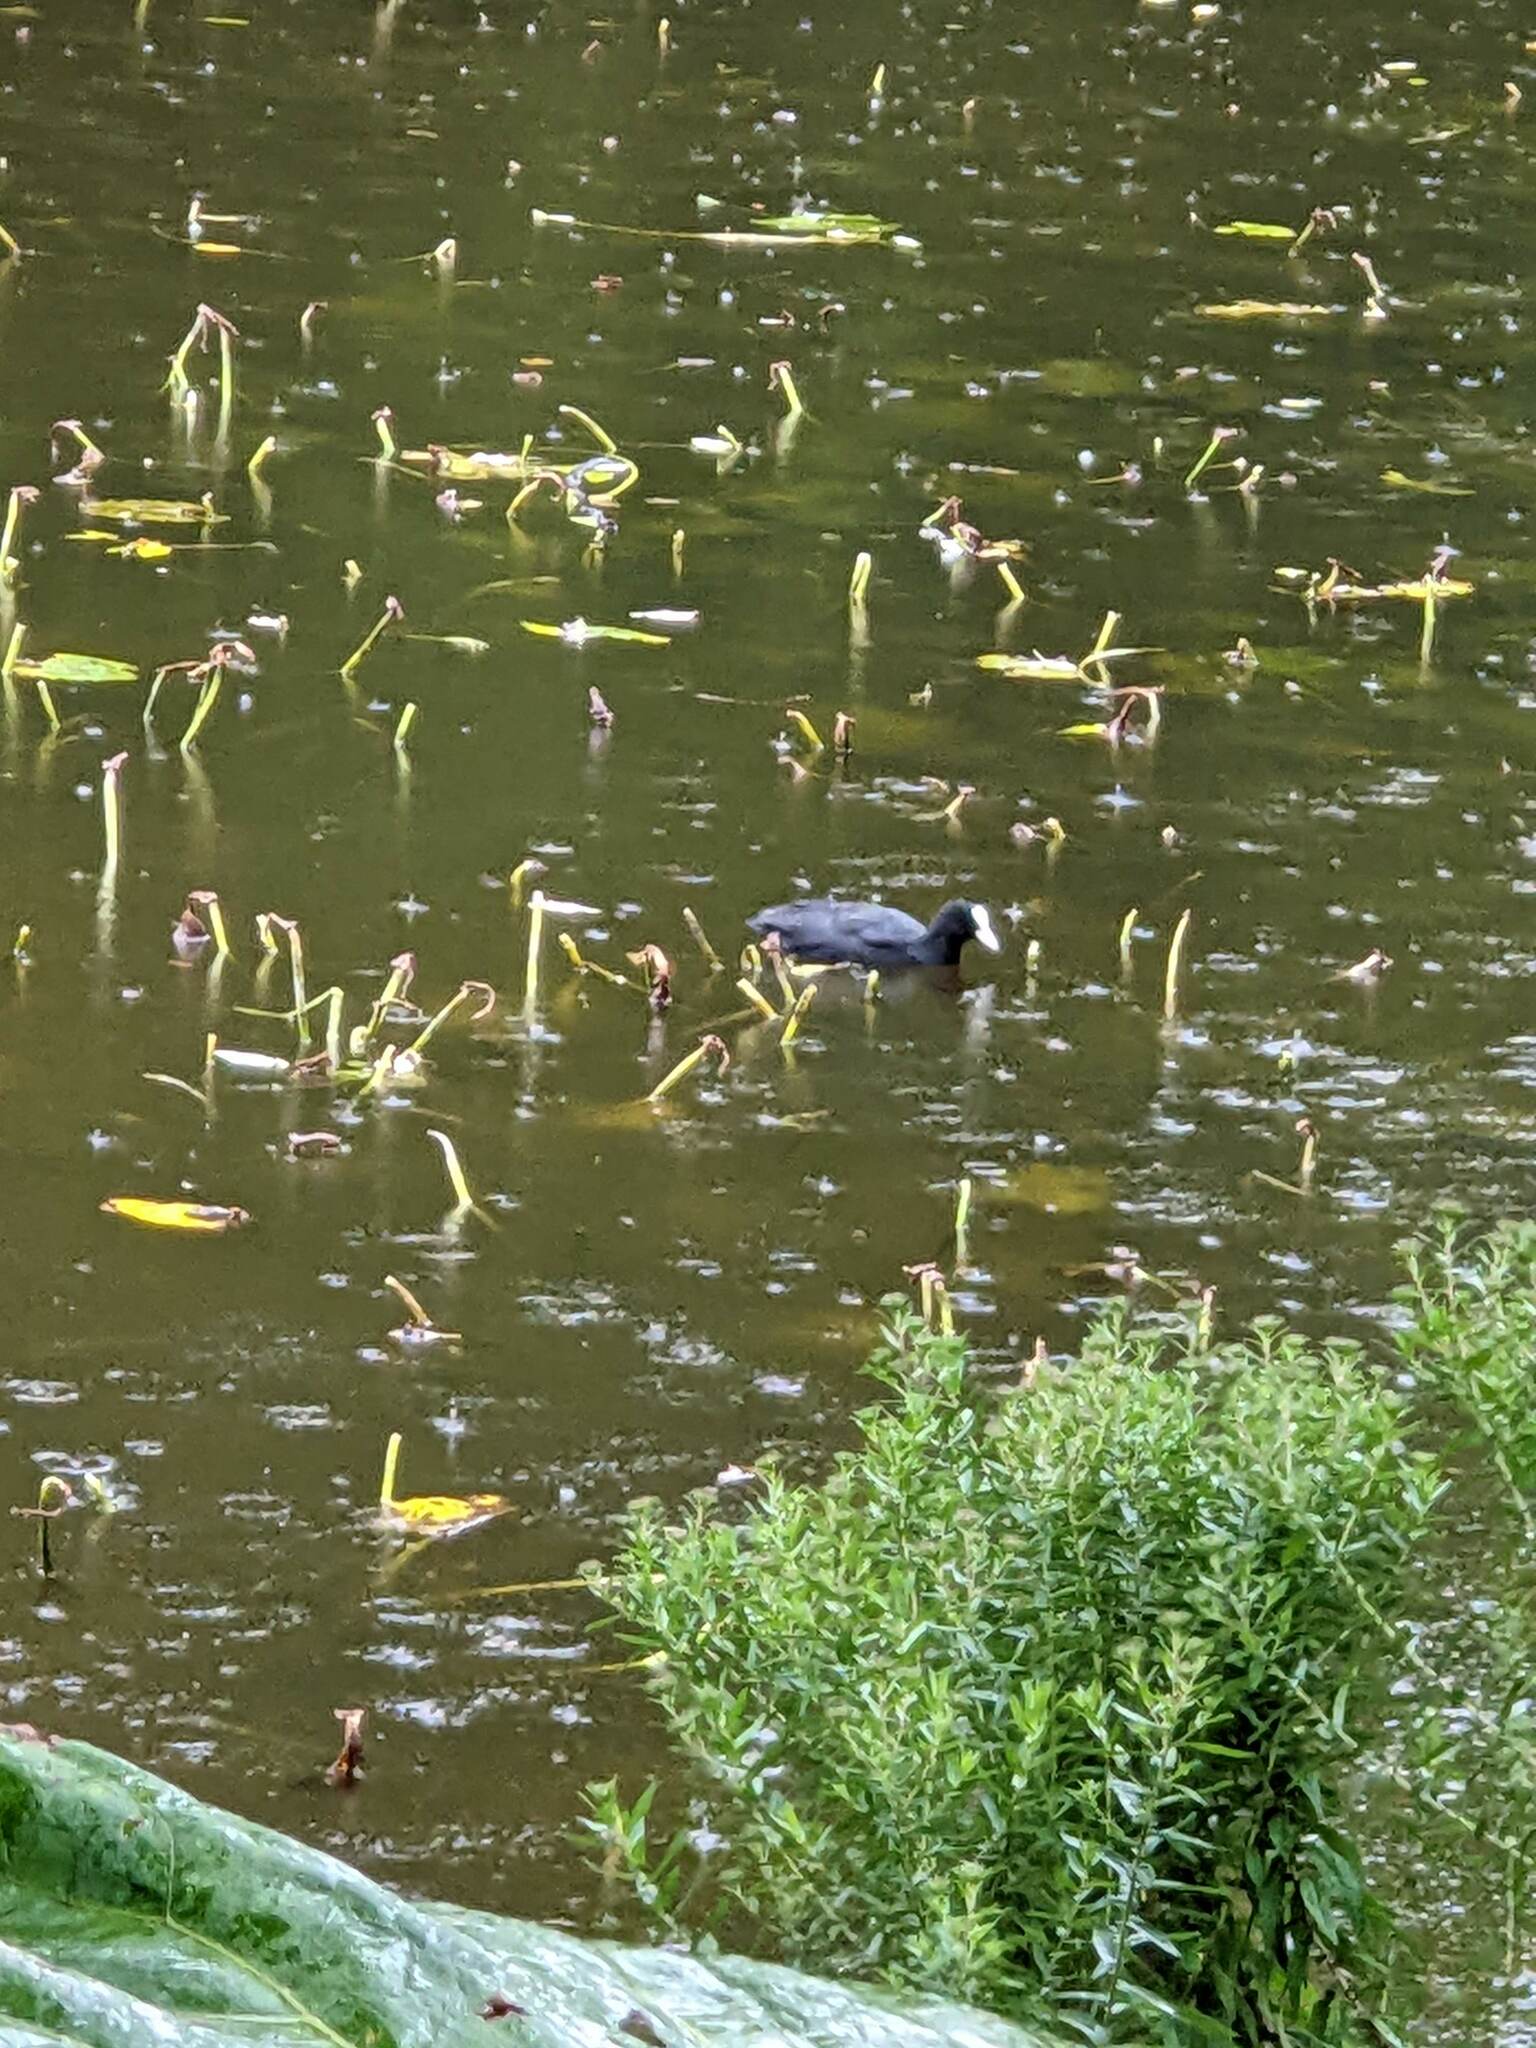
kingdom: Animalia
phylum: Chordata
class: Aves
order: Gruiformes
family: Rallidae
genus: Fulica
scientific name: Fulica atra
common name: Eurasian coot
